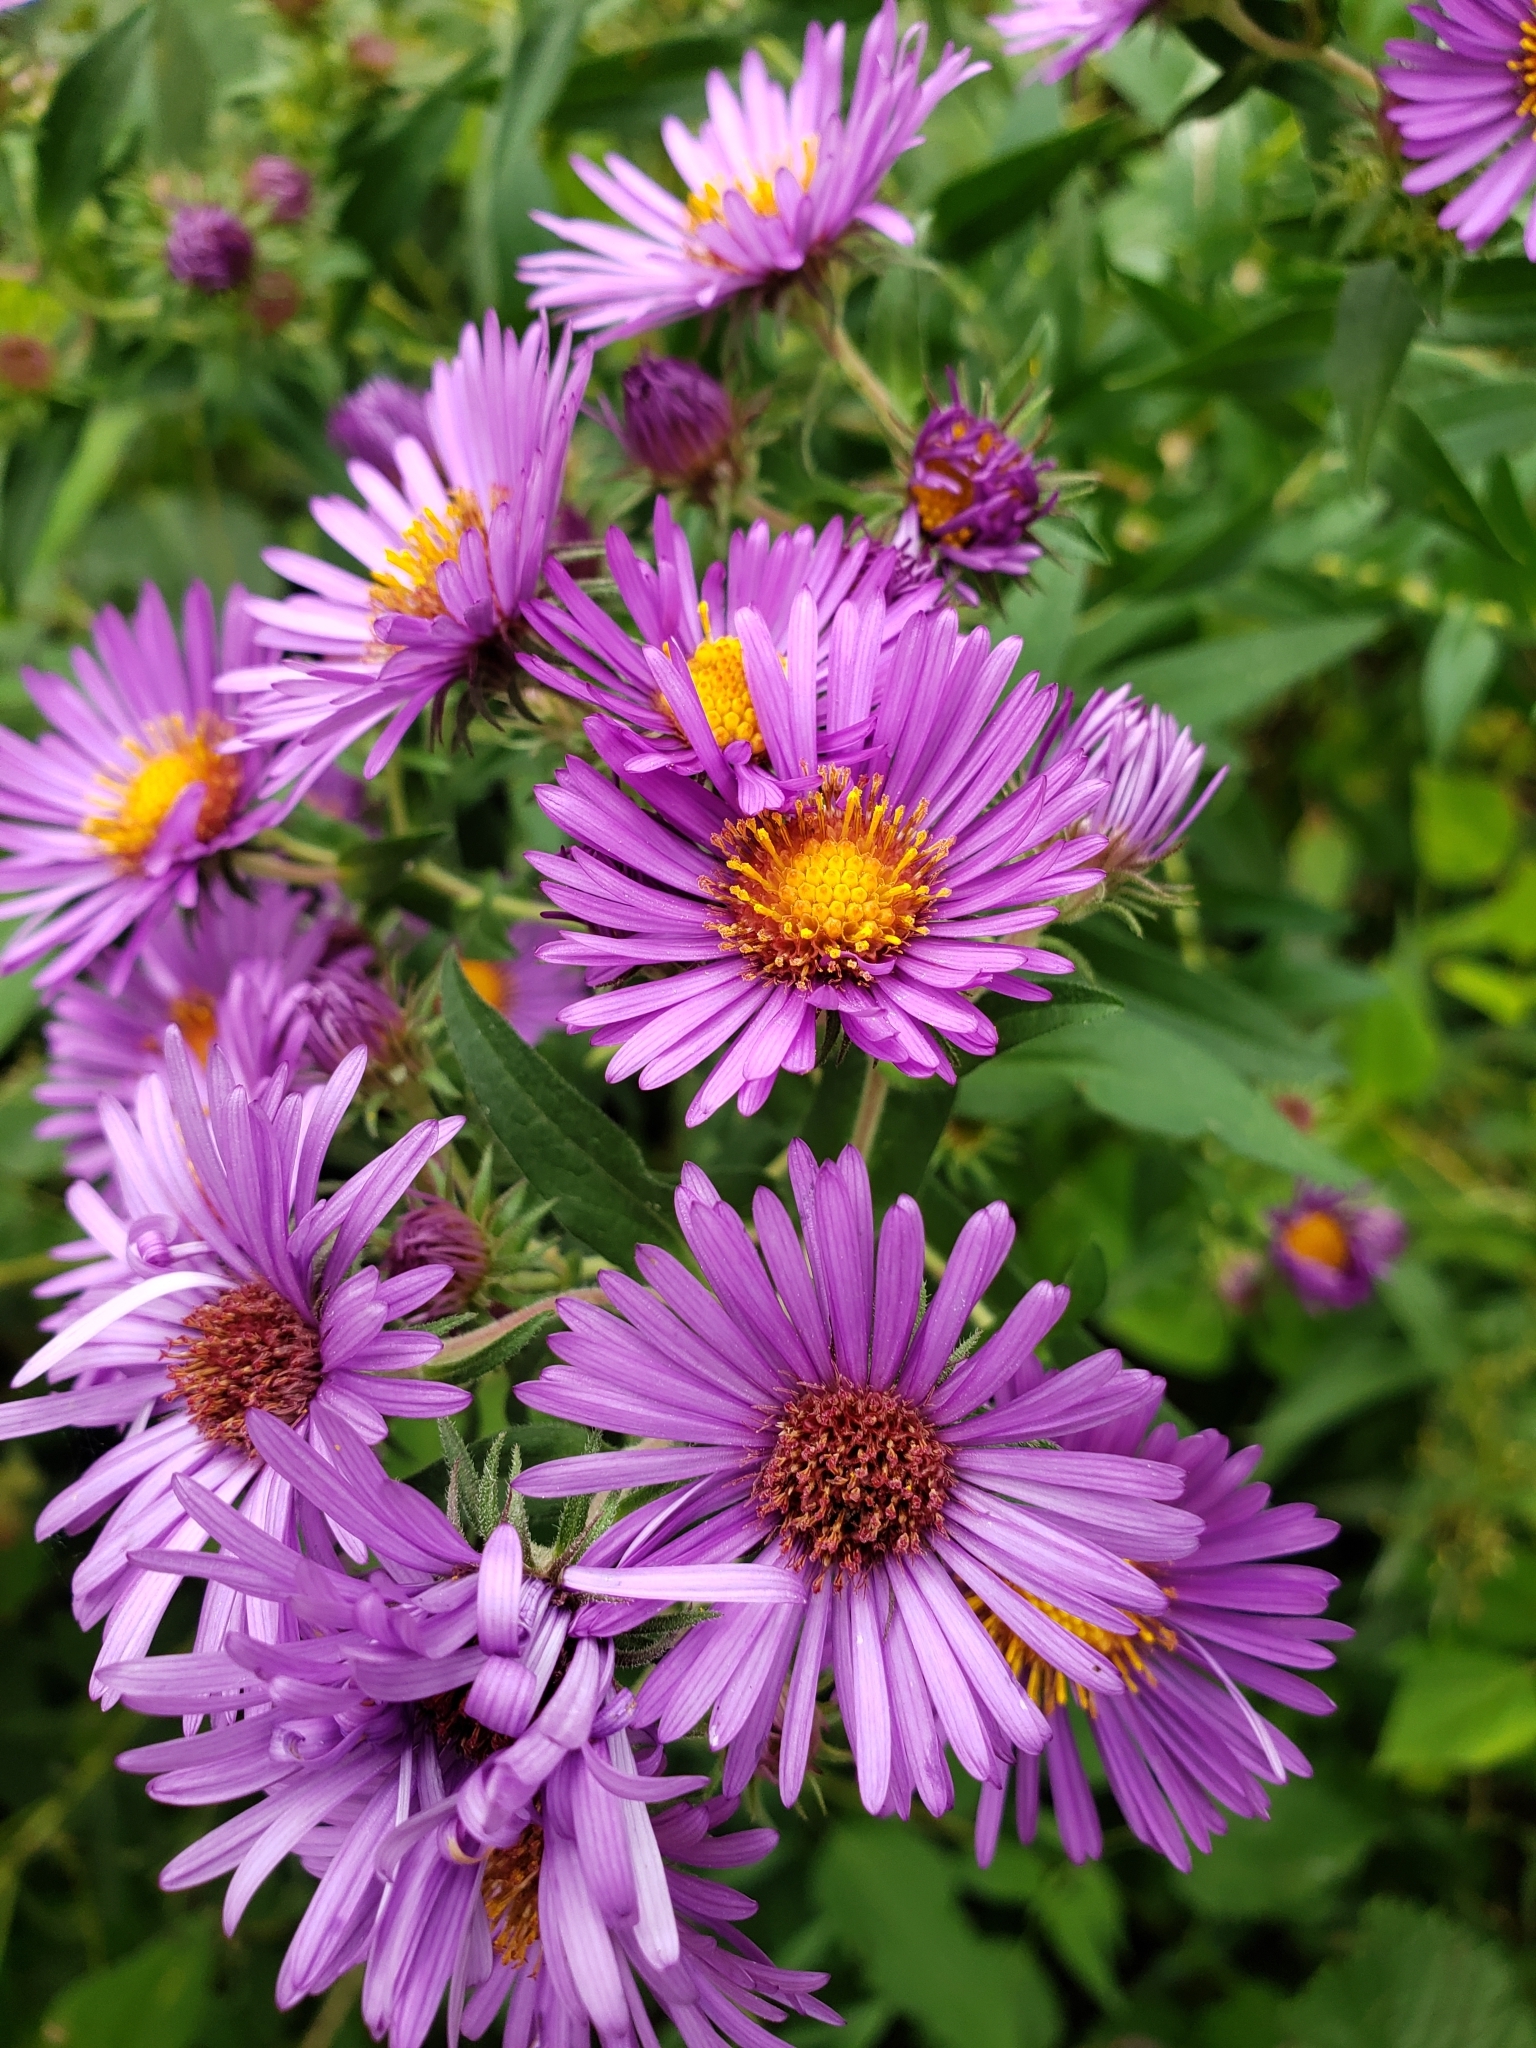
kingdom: Plantae
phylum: Tracheophyta
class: Magnoliopsida
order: Asterales
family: Asteraceae
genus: Symphyotrichum
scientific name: Symphyotrichum novae-angliae
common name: Michaelmas daisy
